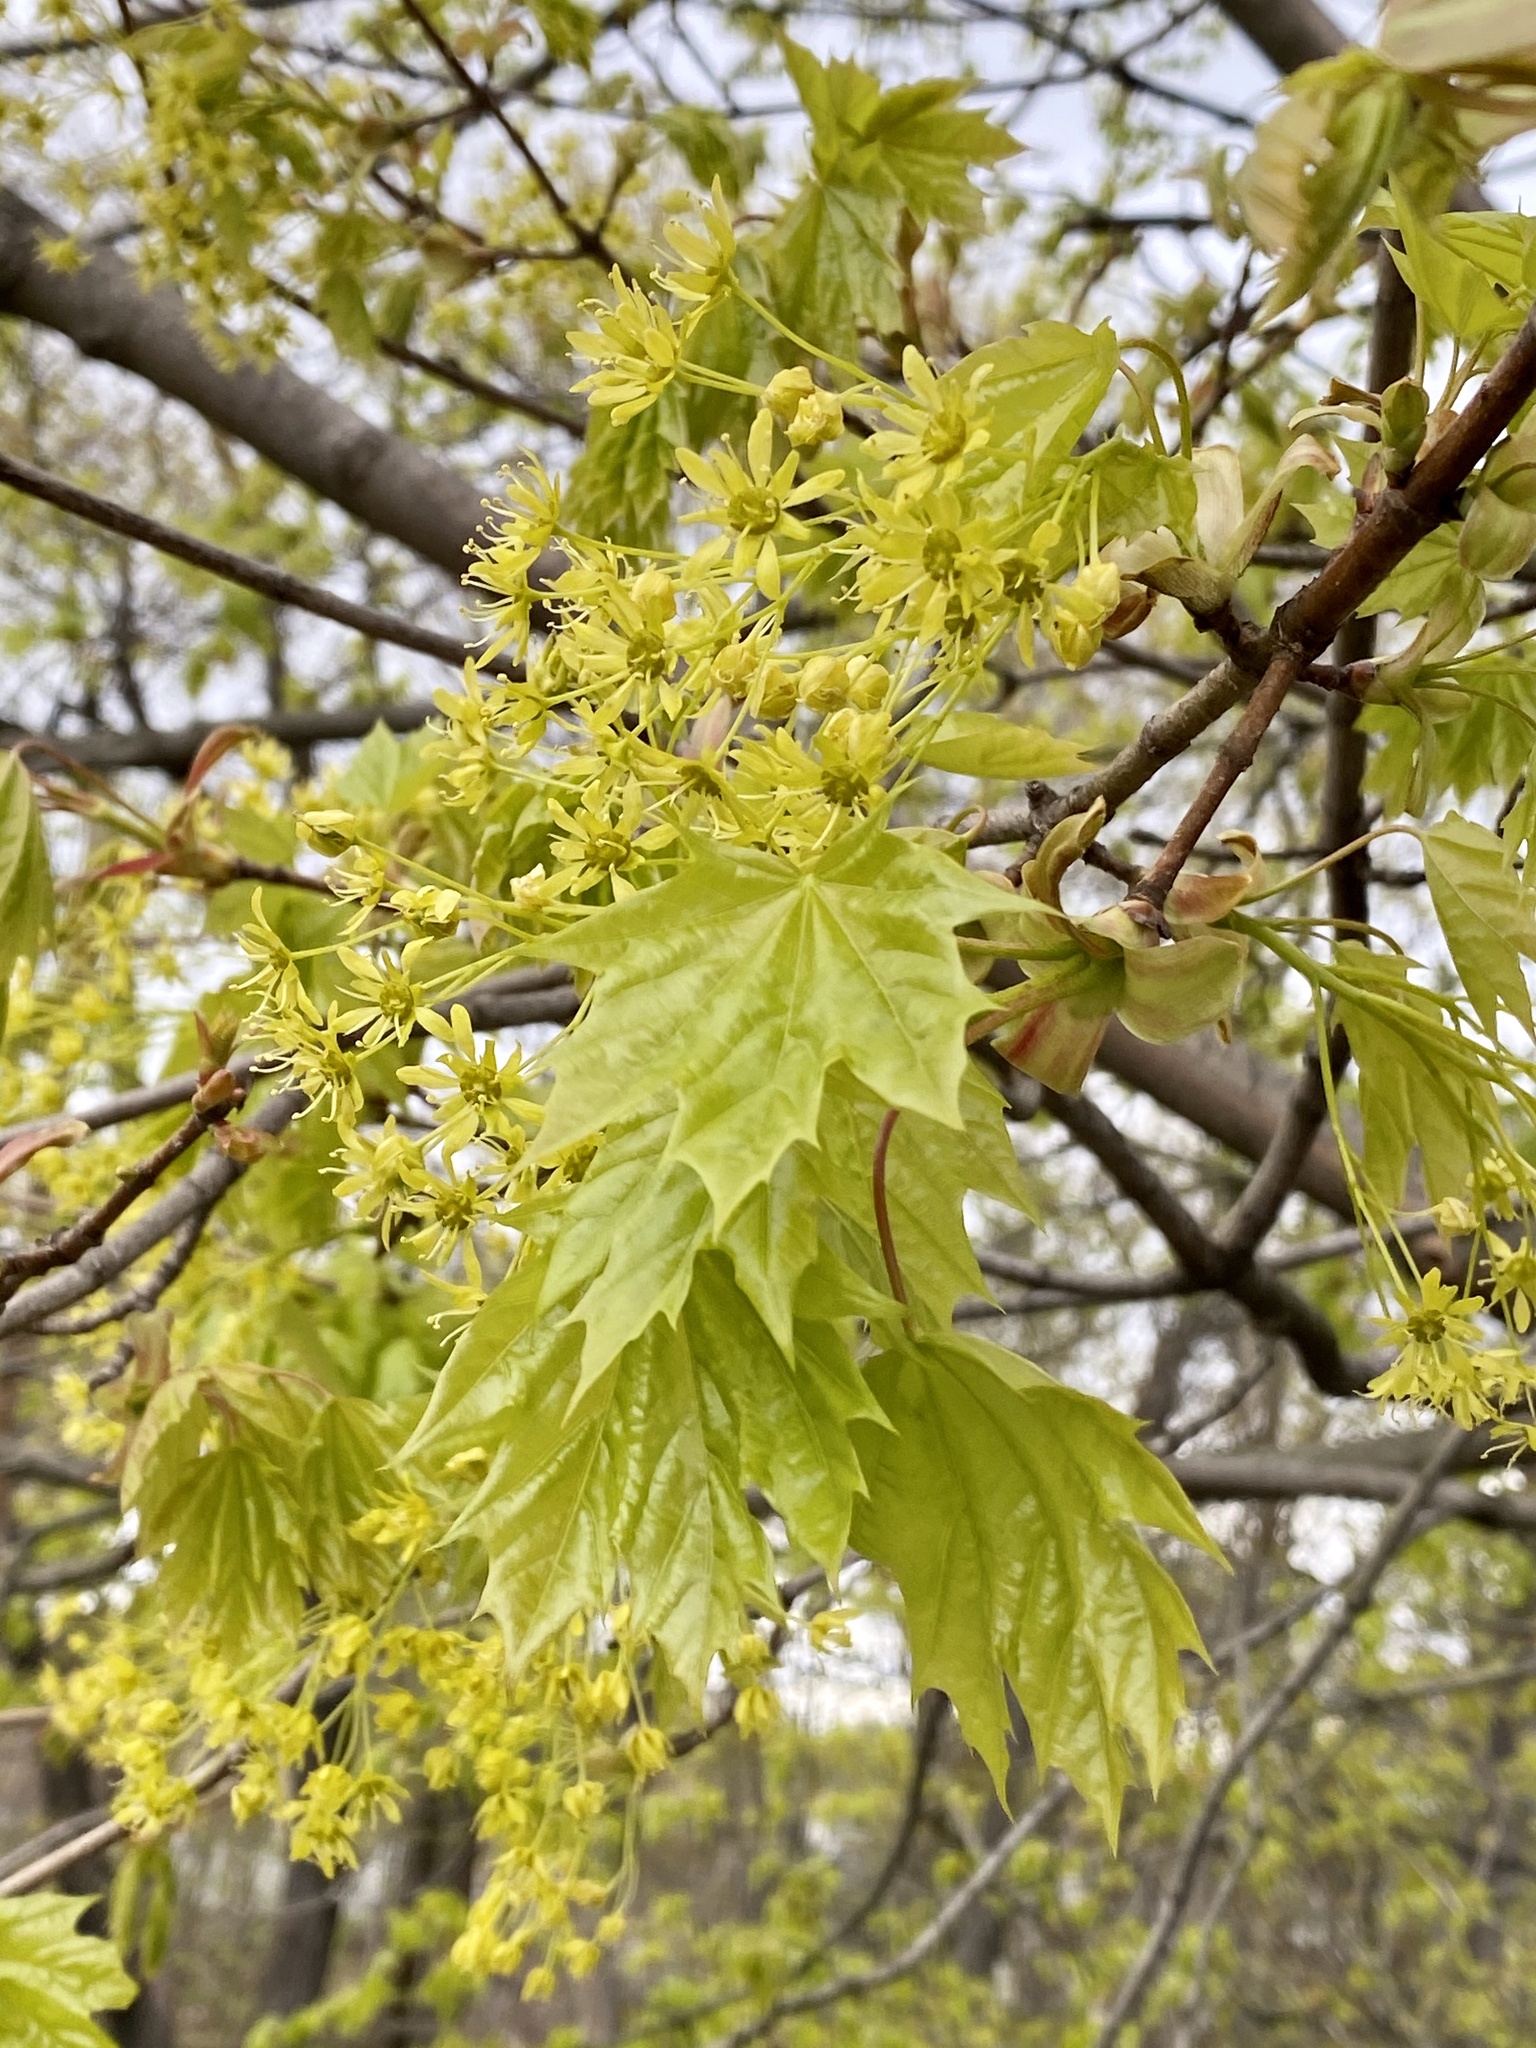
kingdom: Plantae
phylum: Tracheophyta
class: Magnoliopsida
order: Sapindales
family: Sapindaceae
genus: Acer
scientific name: Acer platanoides
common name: Norway maple
